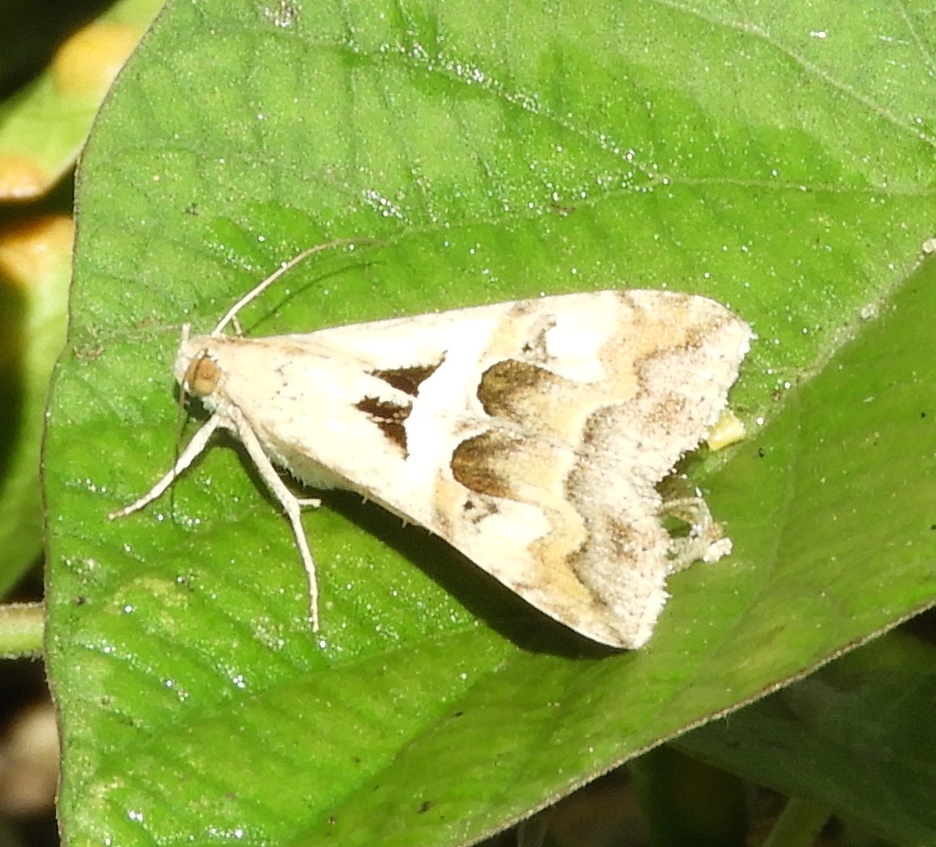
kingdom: Animalia
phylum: Arthropoda
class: Insecta
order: Lepidoptera
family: Erebidae
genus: Melipotis
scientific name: Melipotis cellaris
